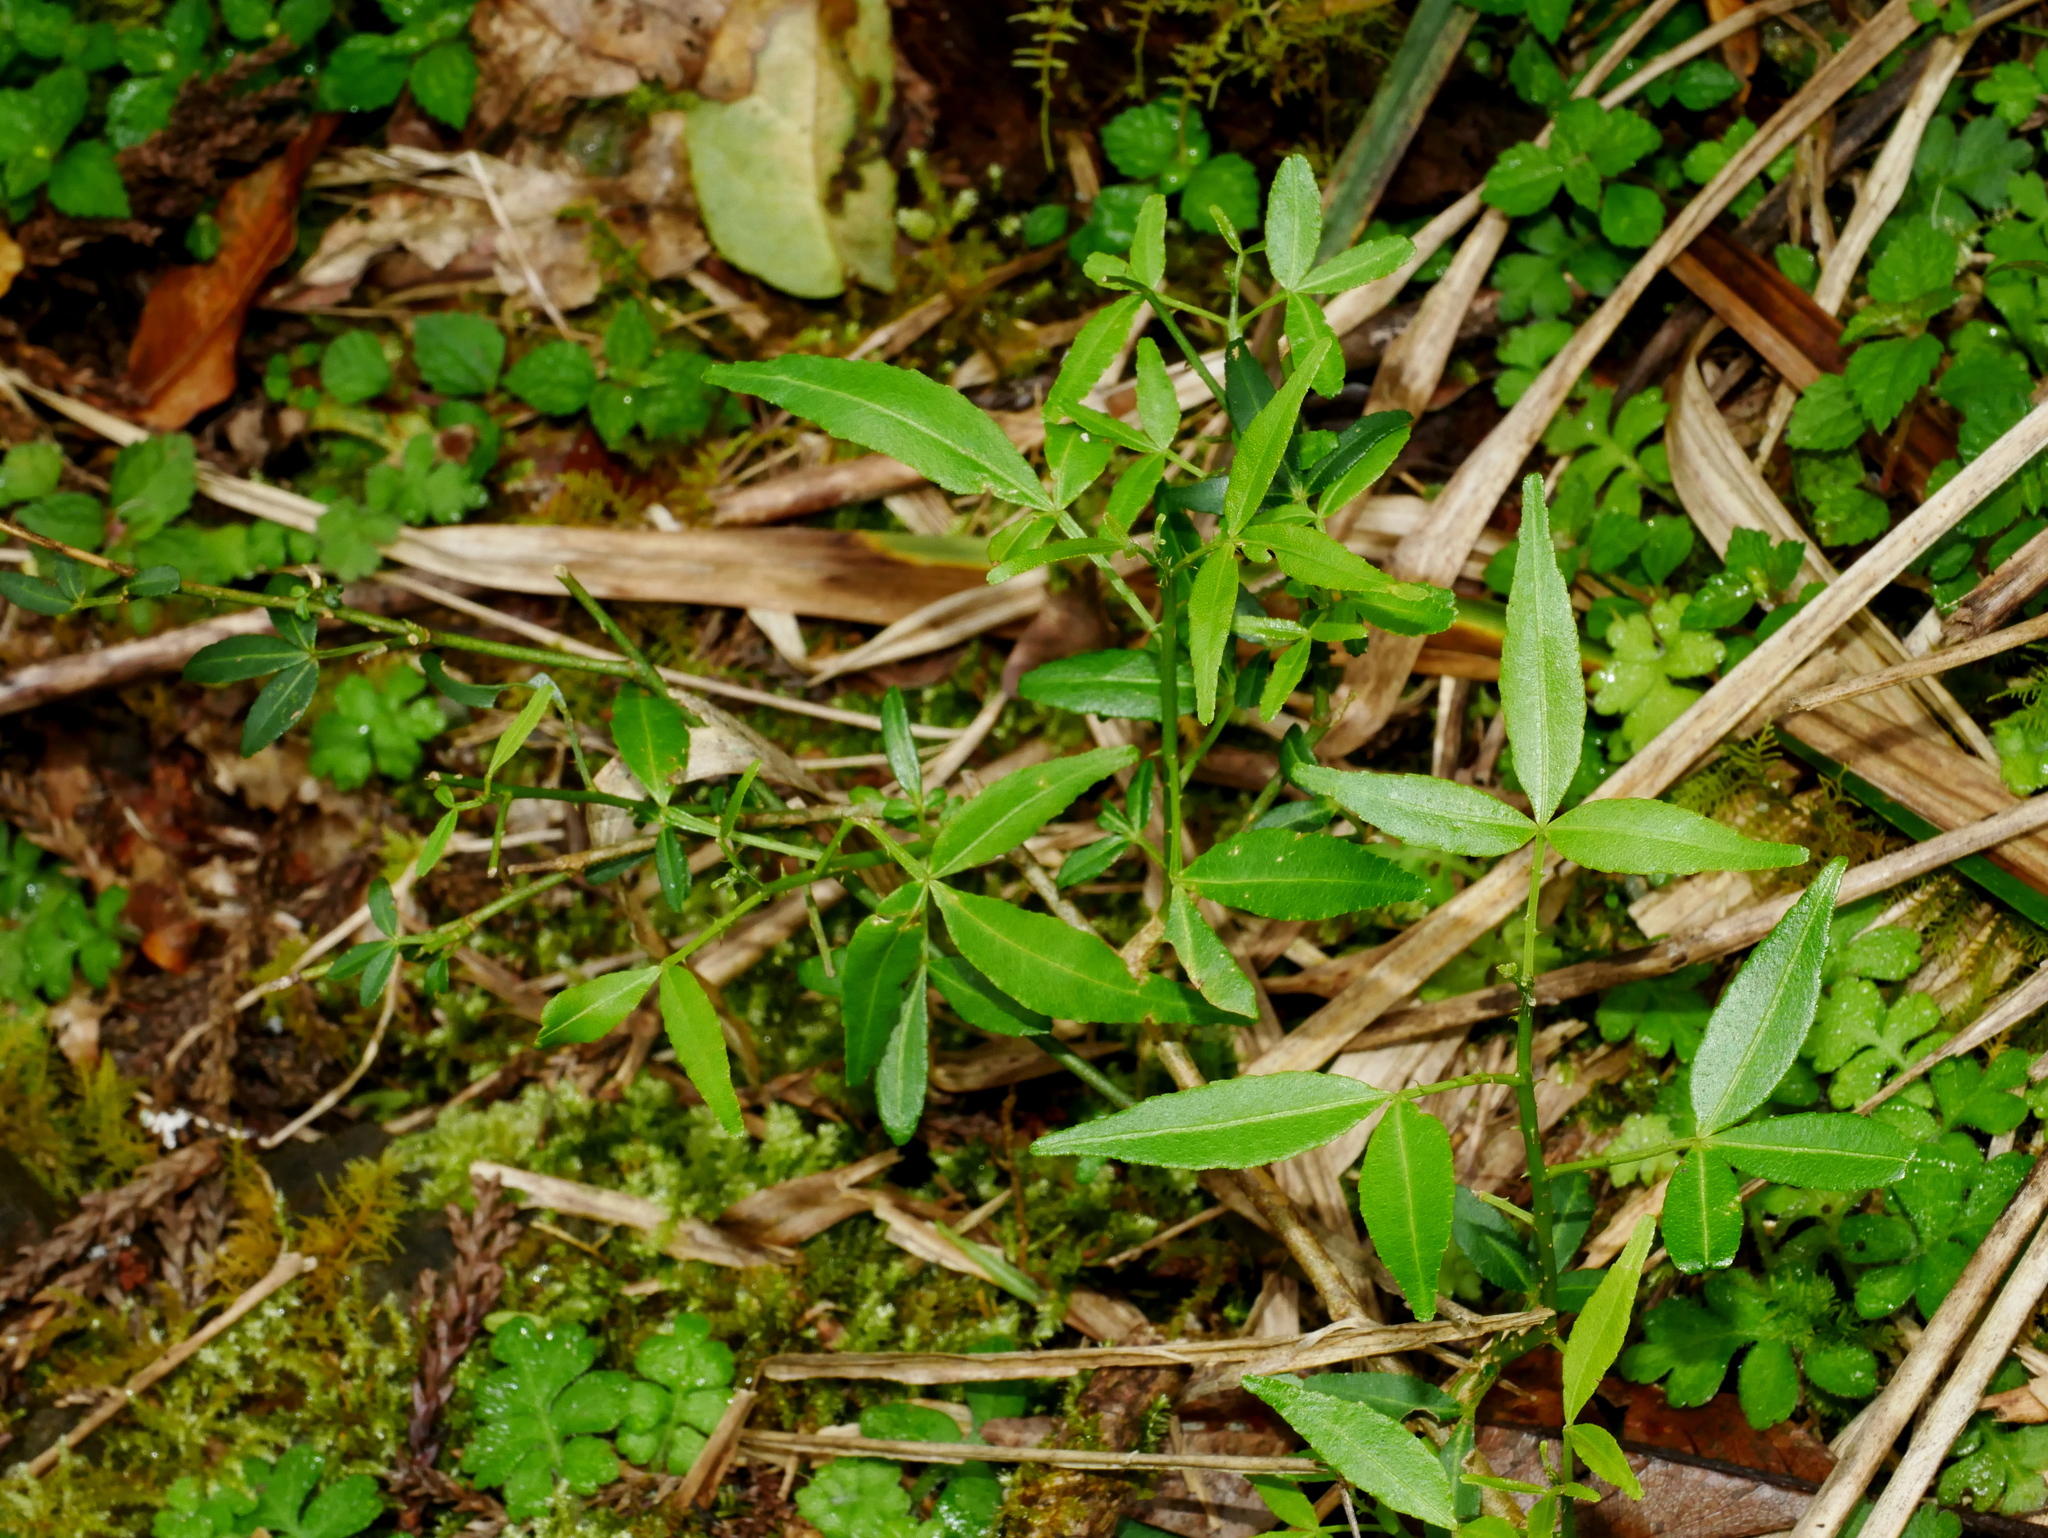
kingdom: Plantae
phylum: Tracheophyta
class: Magnoliopsida
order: Sapindales
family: Rutaceae
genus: Zanthoxylum
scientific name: Zanthoxylum asiaticum
